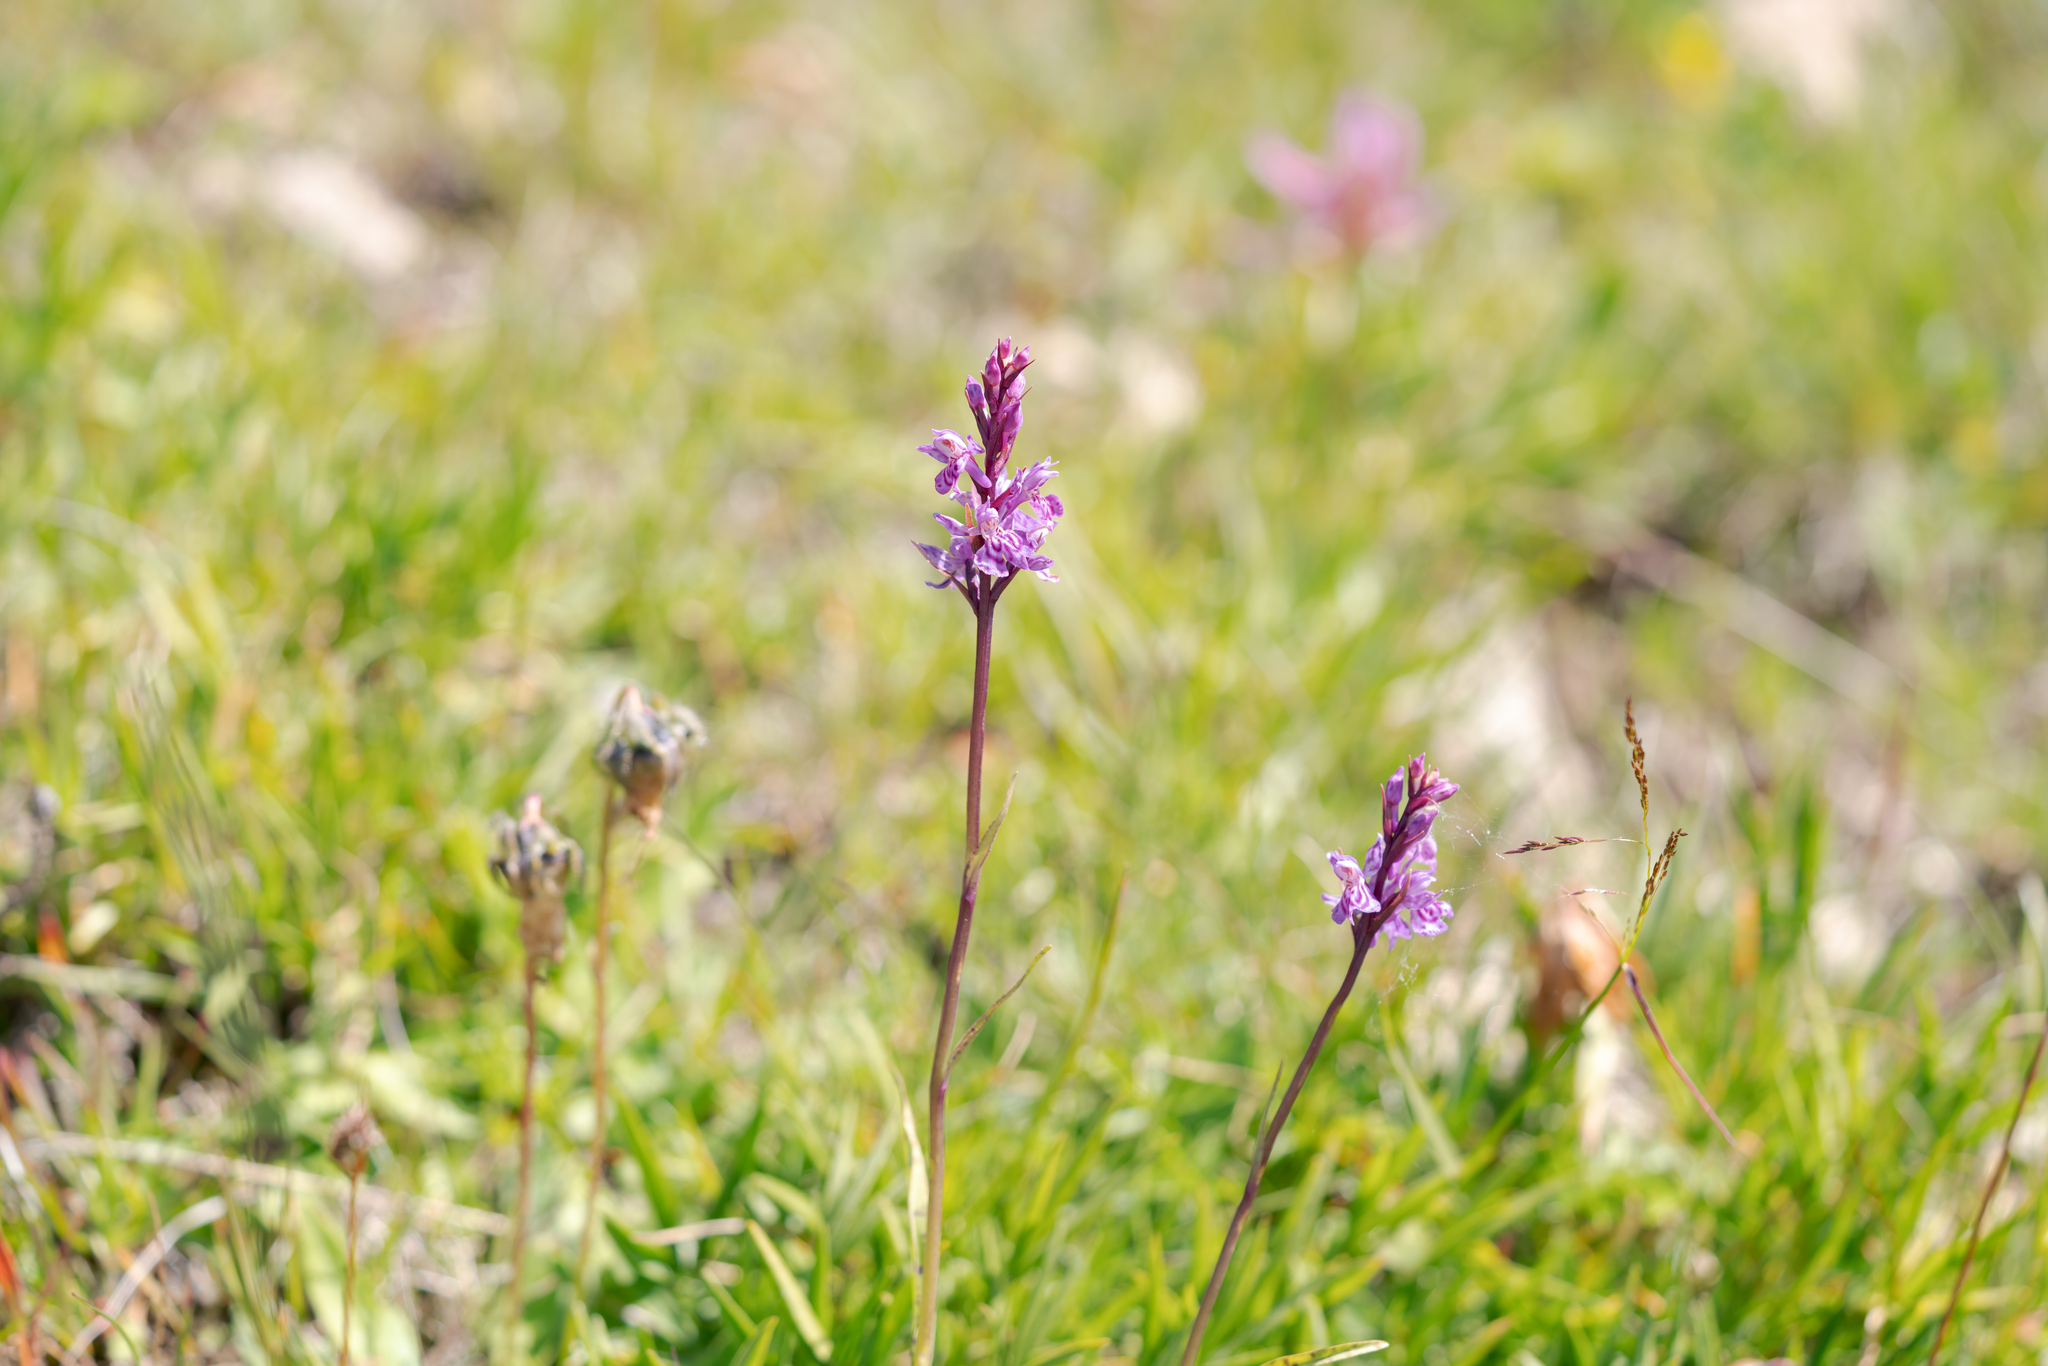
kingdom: Plantae
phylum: Tracheophyta
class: Liliopsida
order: Asparagales
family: Orchidaceae
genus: Dactylorhiza
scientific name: Dactylorhiza maculata
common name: Heath spotted-orchid
